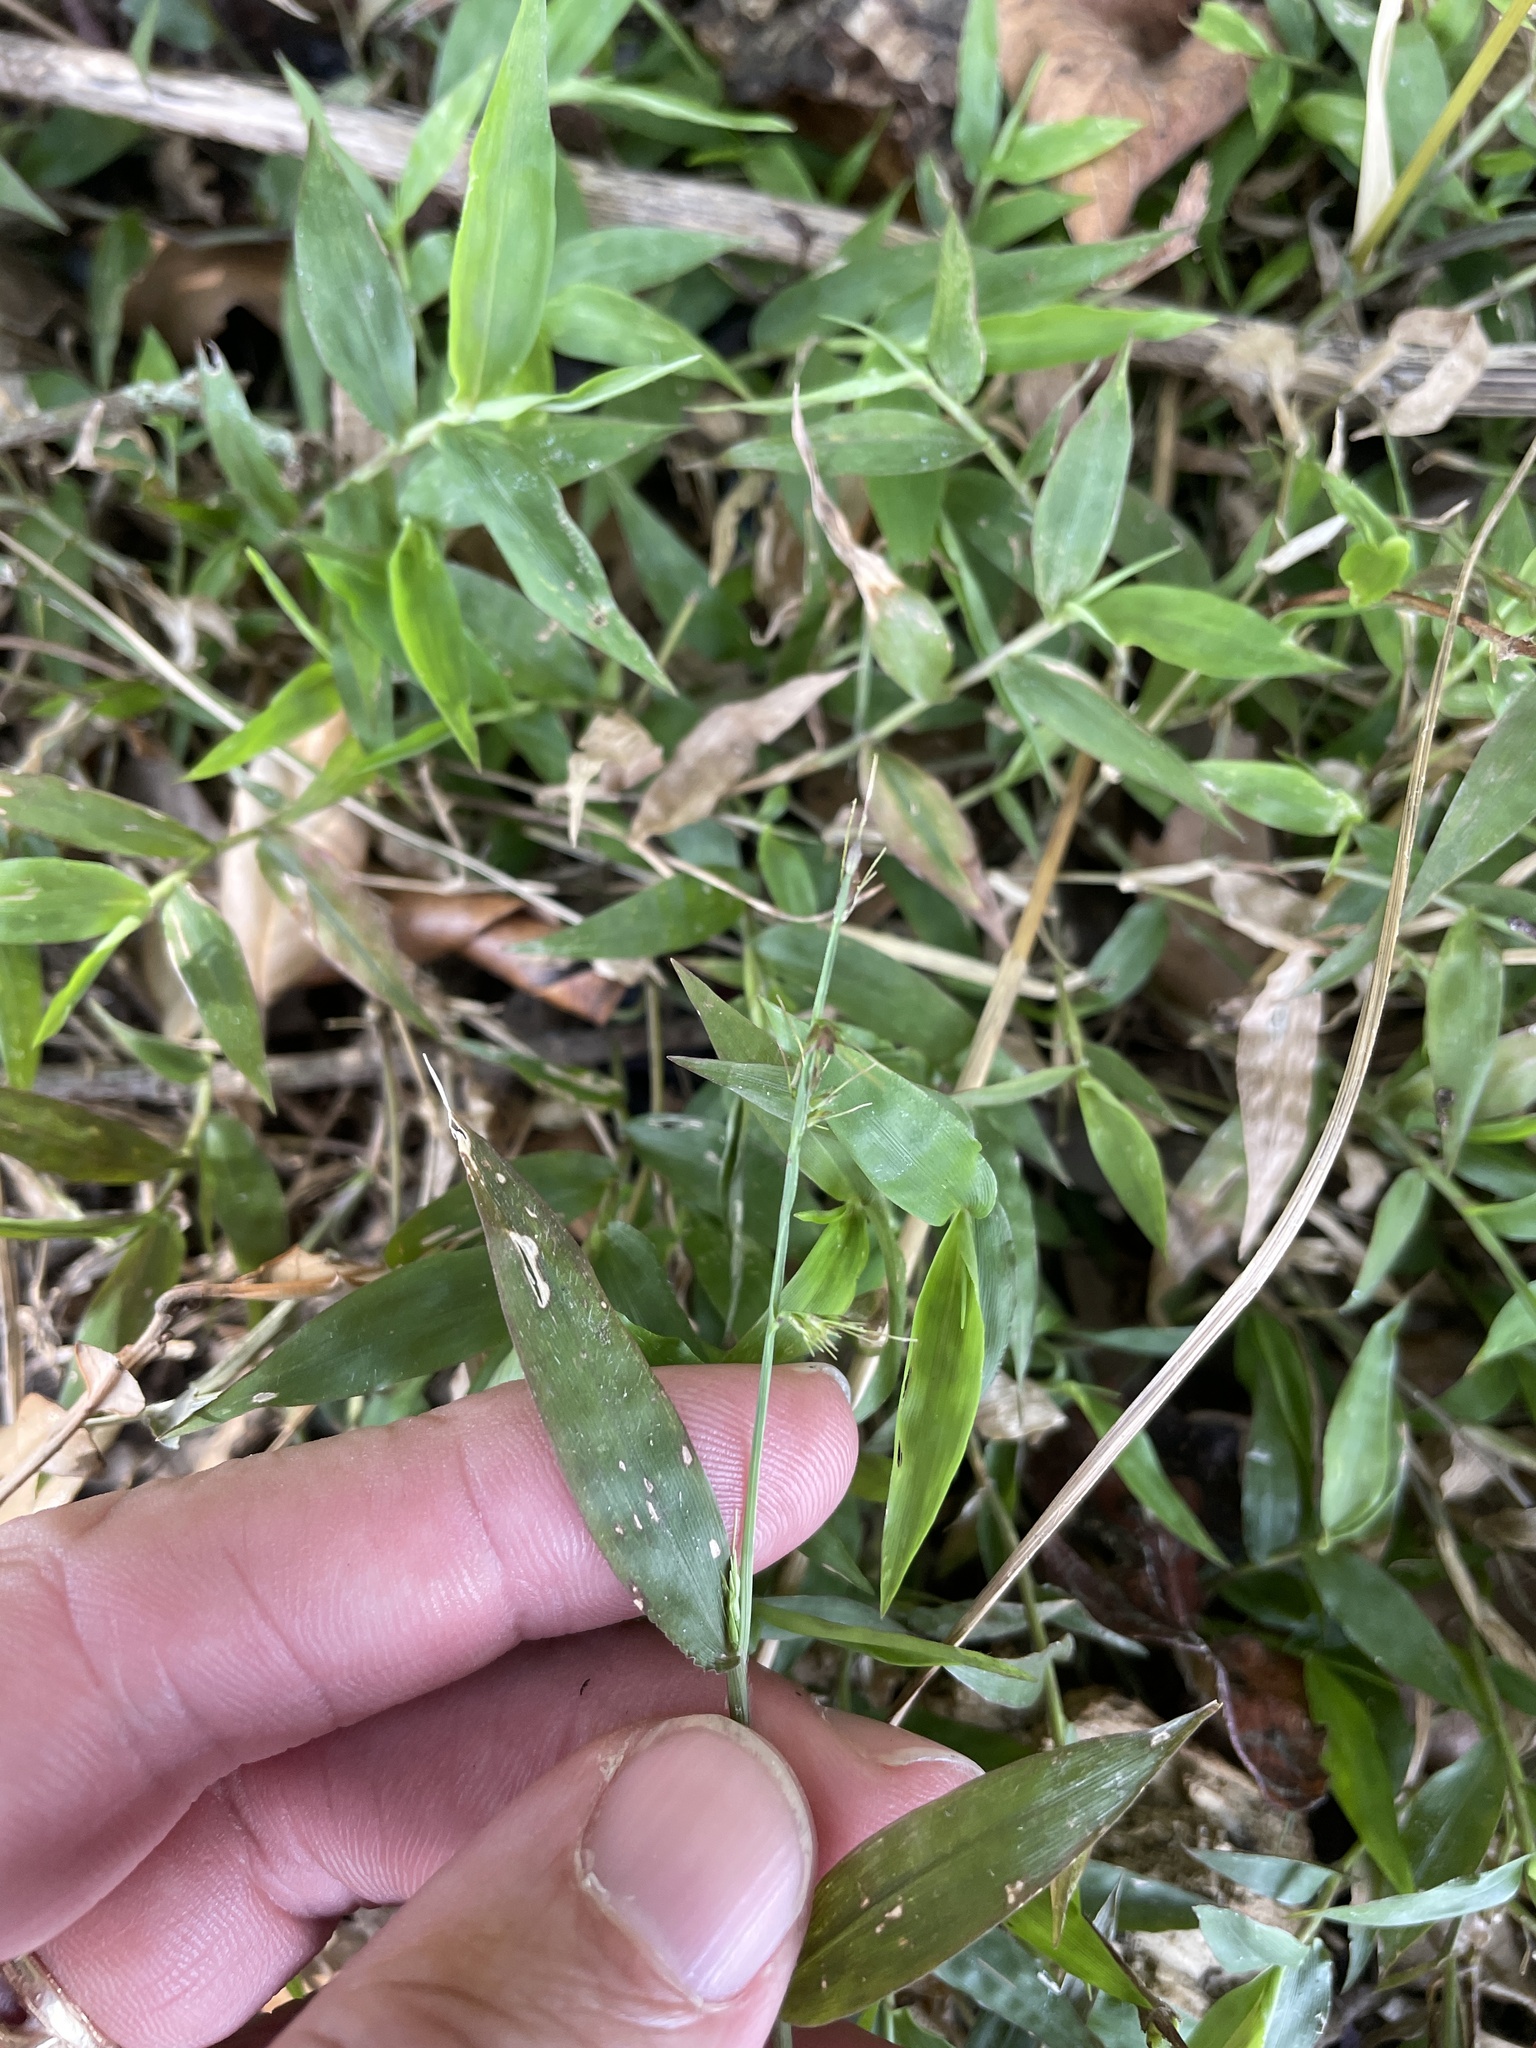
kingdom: Plantae
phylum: Tracheophyta
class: Liliopsida
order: Poales
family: Poaceae
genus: Oplismenus
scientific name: Oplismenus hirtellus
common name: Basketgrass
